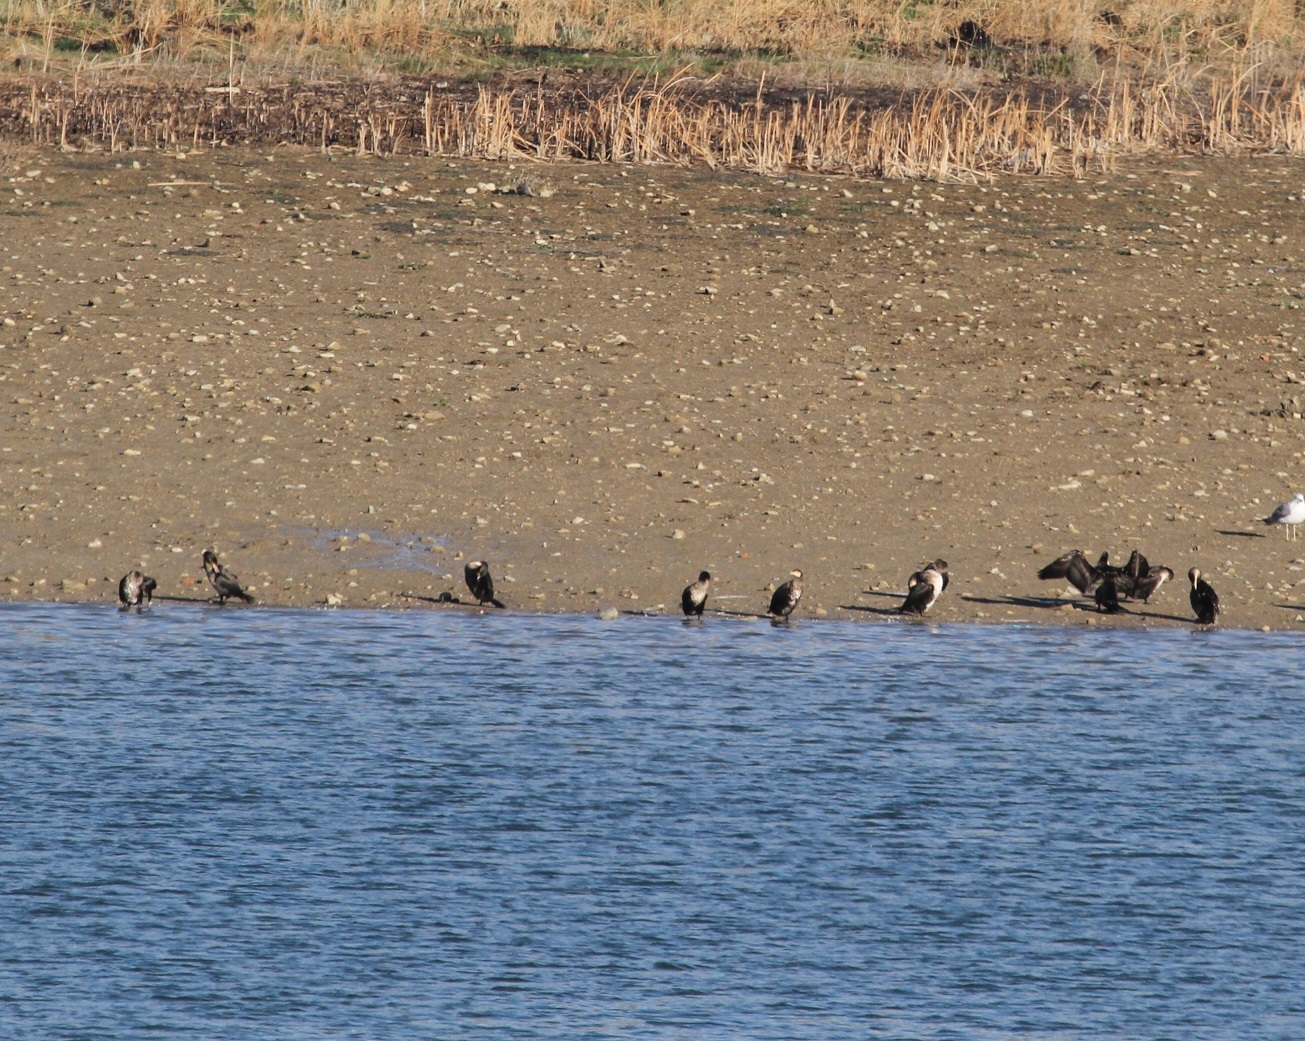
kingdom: Animalia
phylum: Chordata
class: Aves
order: Suliformes
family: Phalacrocoracidae
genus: Phalacrocorax
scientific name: Phalacrocorax carbo
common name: Great cormorant
